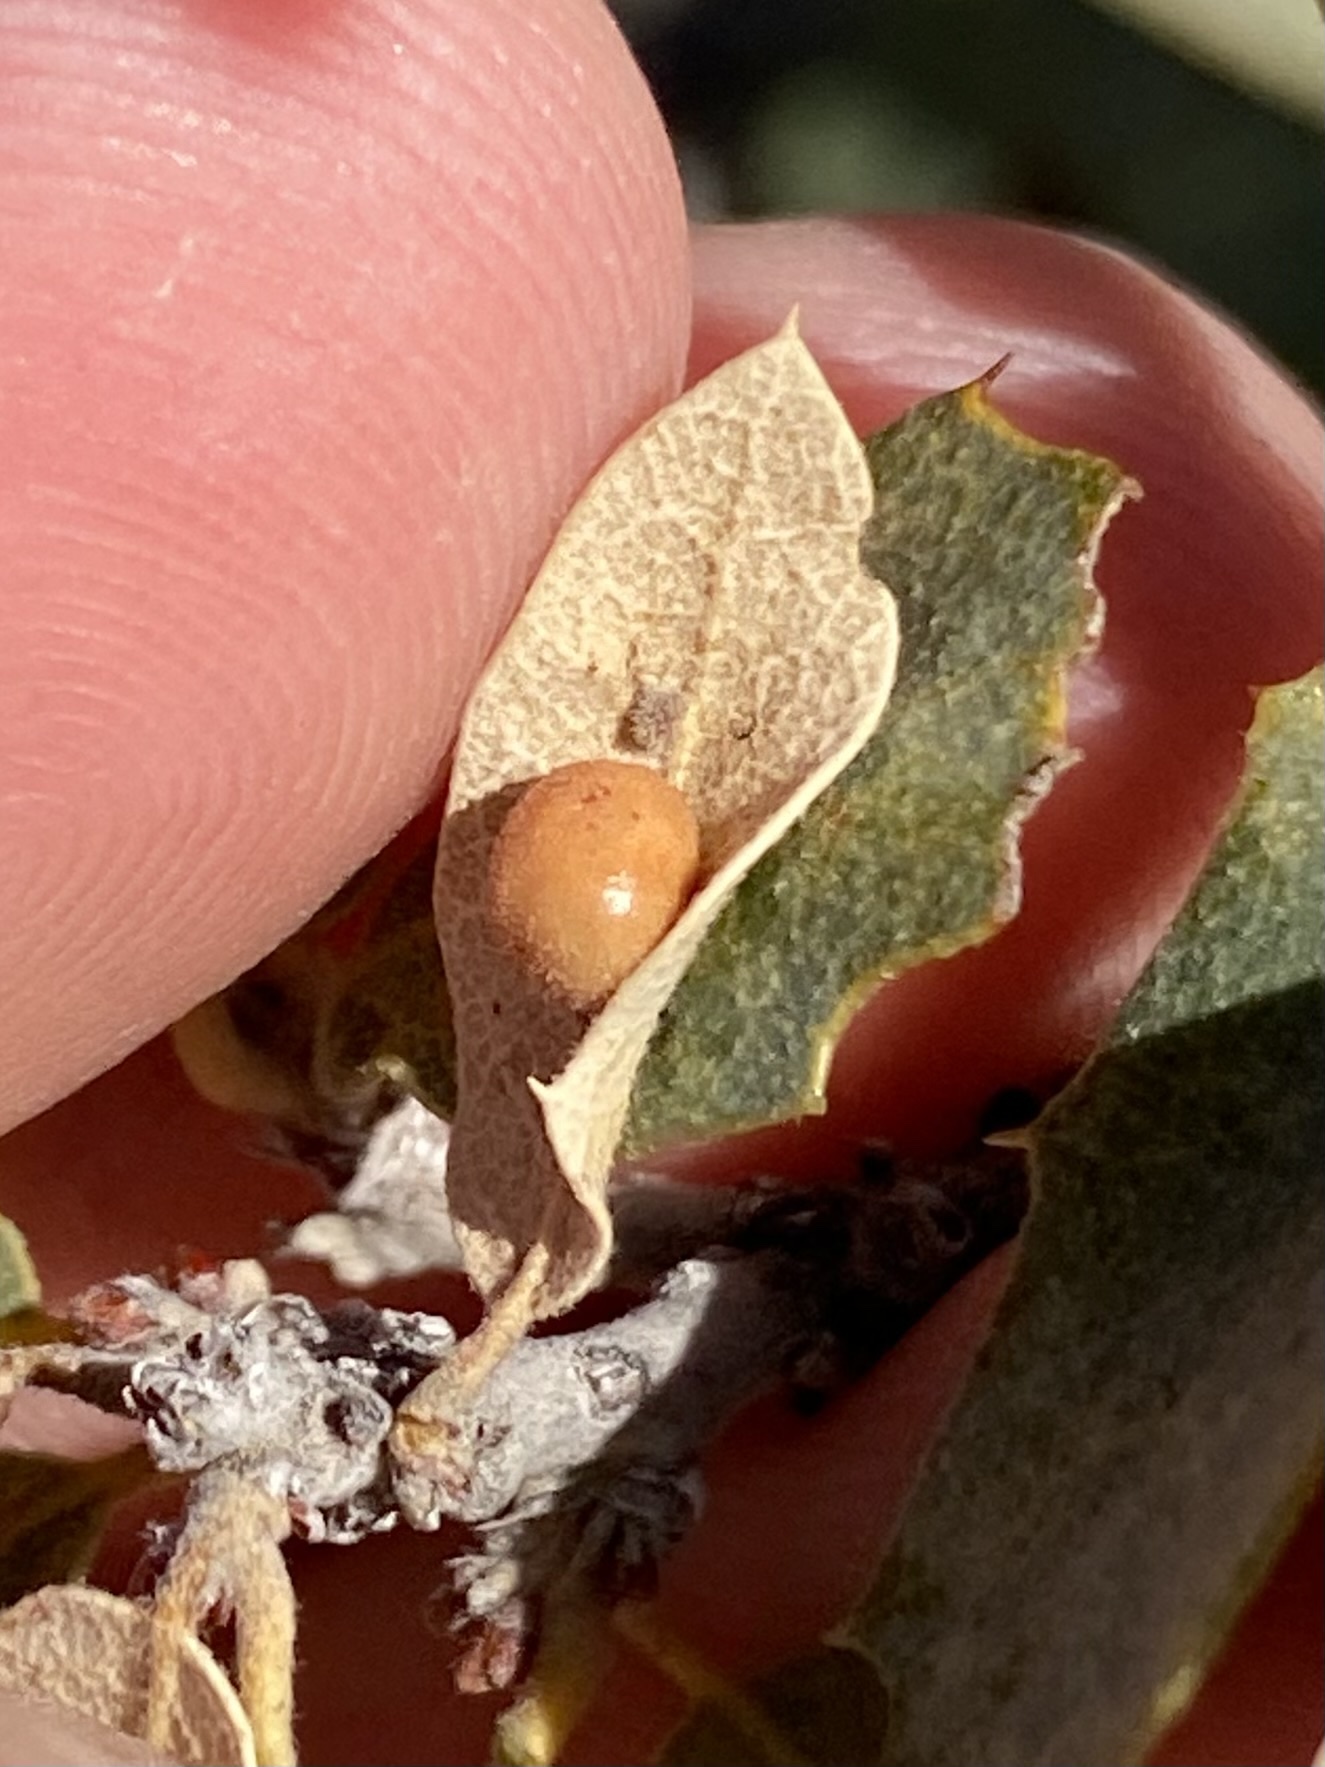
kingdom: Animalia
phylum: Arthropoda
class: Insecta
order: Hymenoptera
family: Cynipidae
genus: Trigonaspis
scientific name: Trigonaspis
